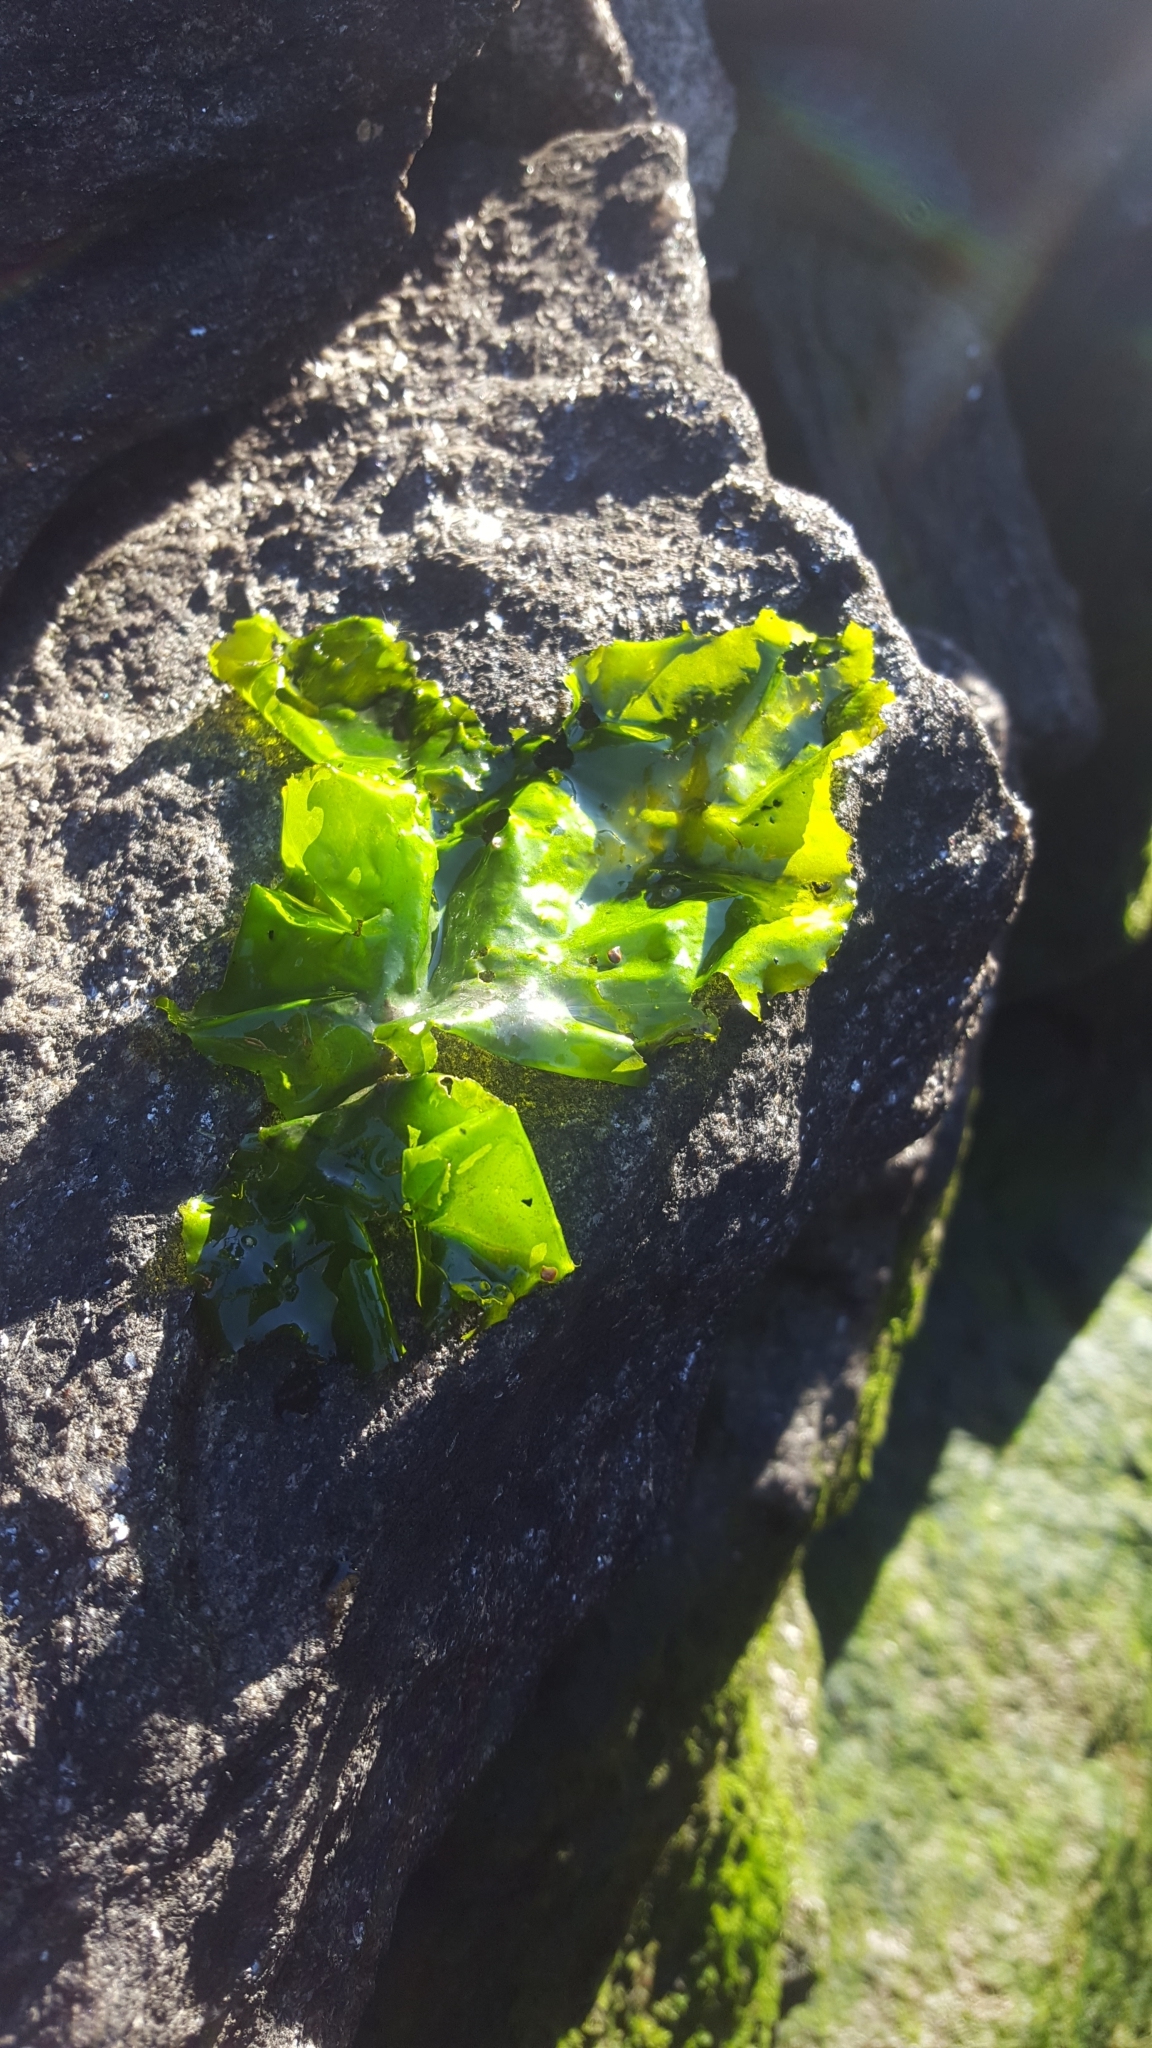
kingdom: Plantae
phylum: Chlorophyta
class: Ulvophyceae
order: Ulvales
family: Ulvaceae
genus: Ulva
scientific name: Ulva lactuca
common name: Sea lettuce
